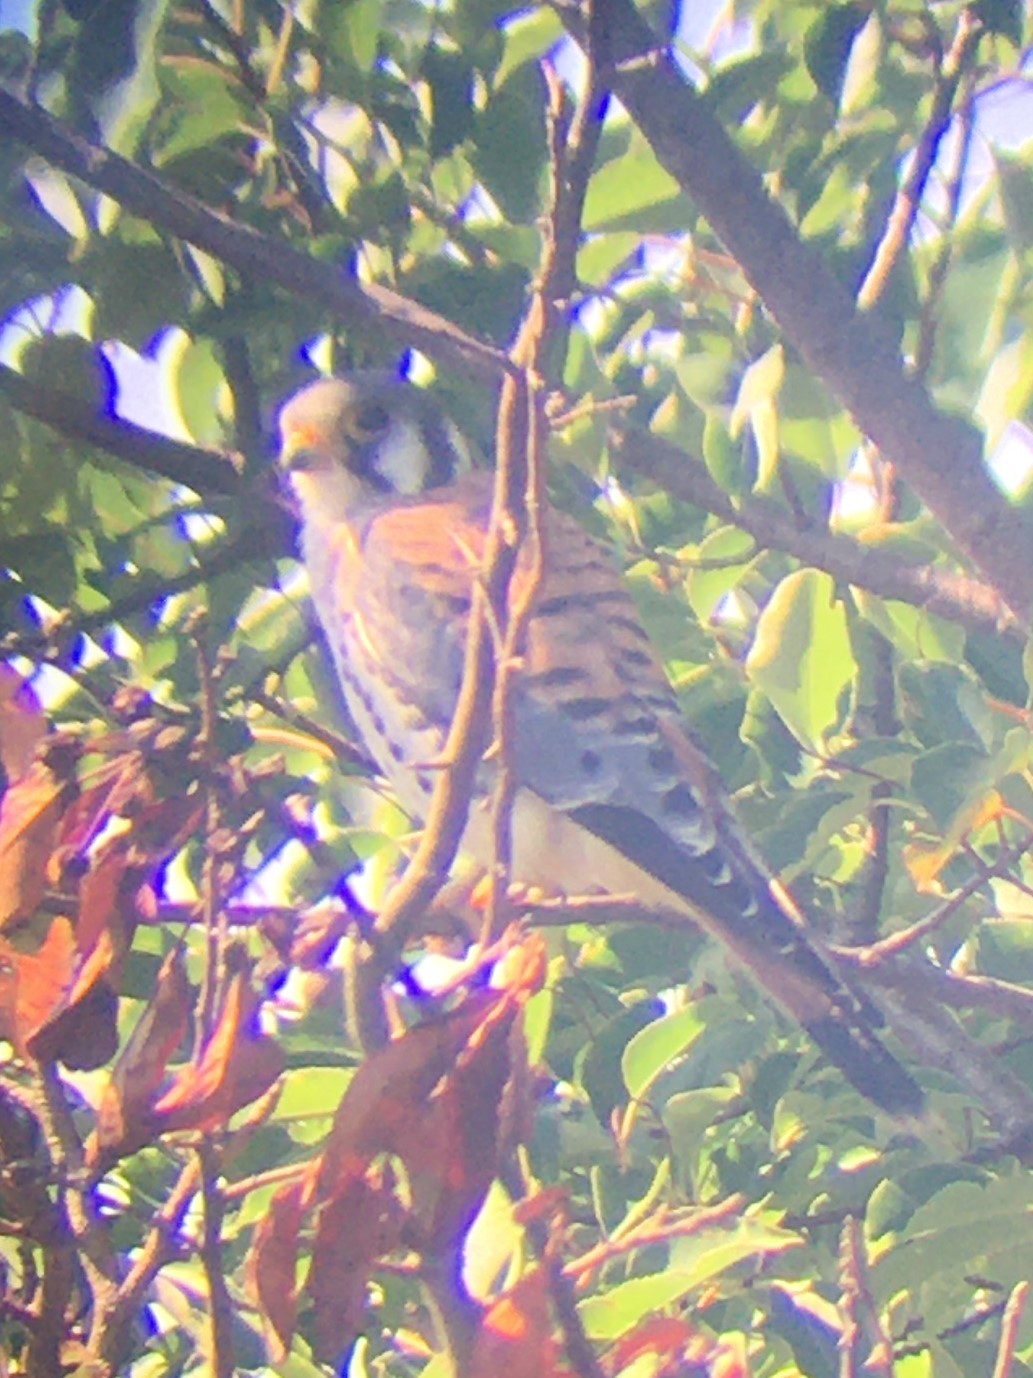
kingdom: Animalia
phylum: Chordata
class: Aves
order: Falconiformes
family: Falconidae
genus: Falco
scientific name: Falco sparverius
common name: American kestrel
